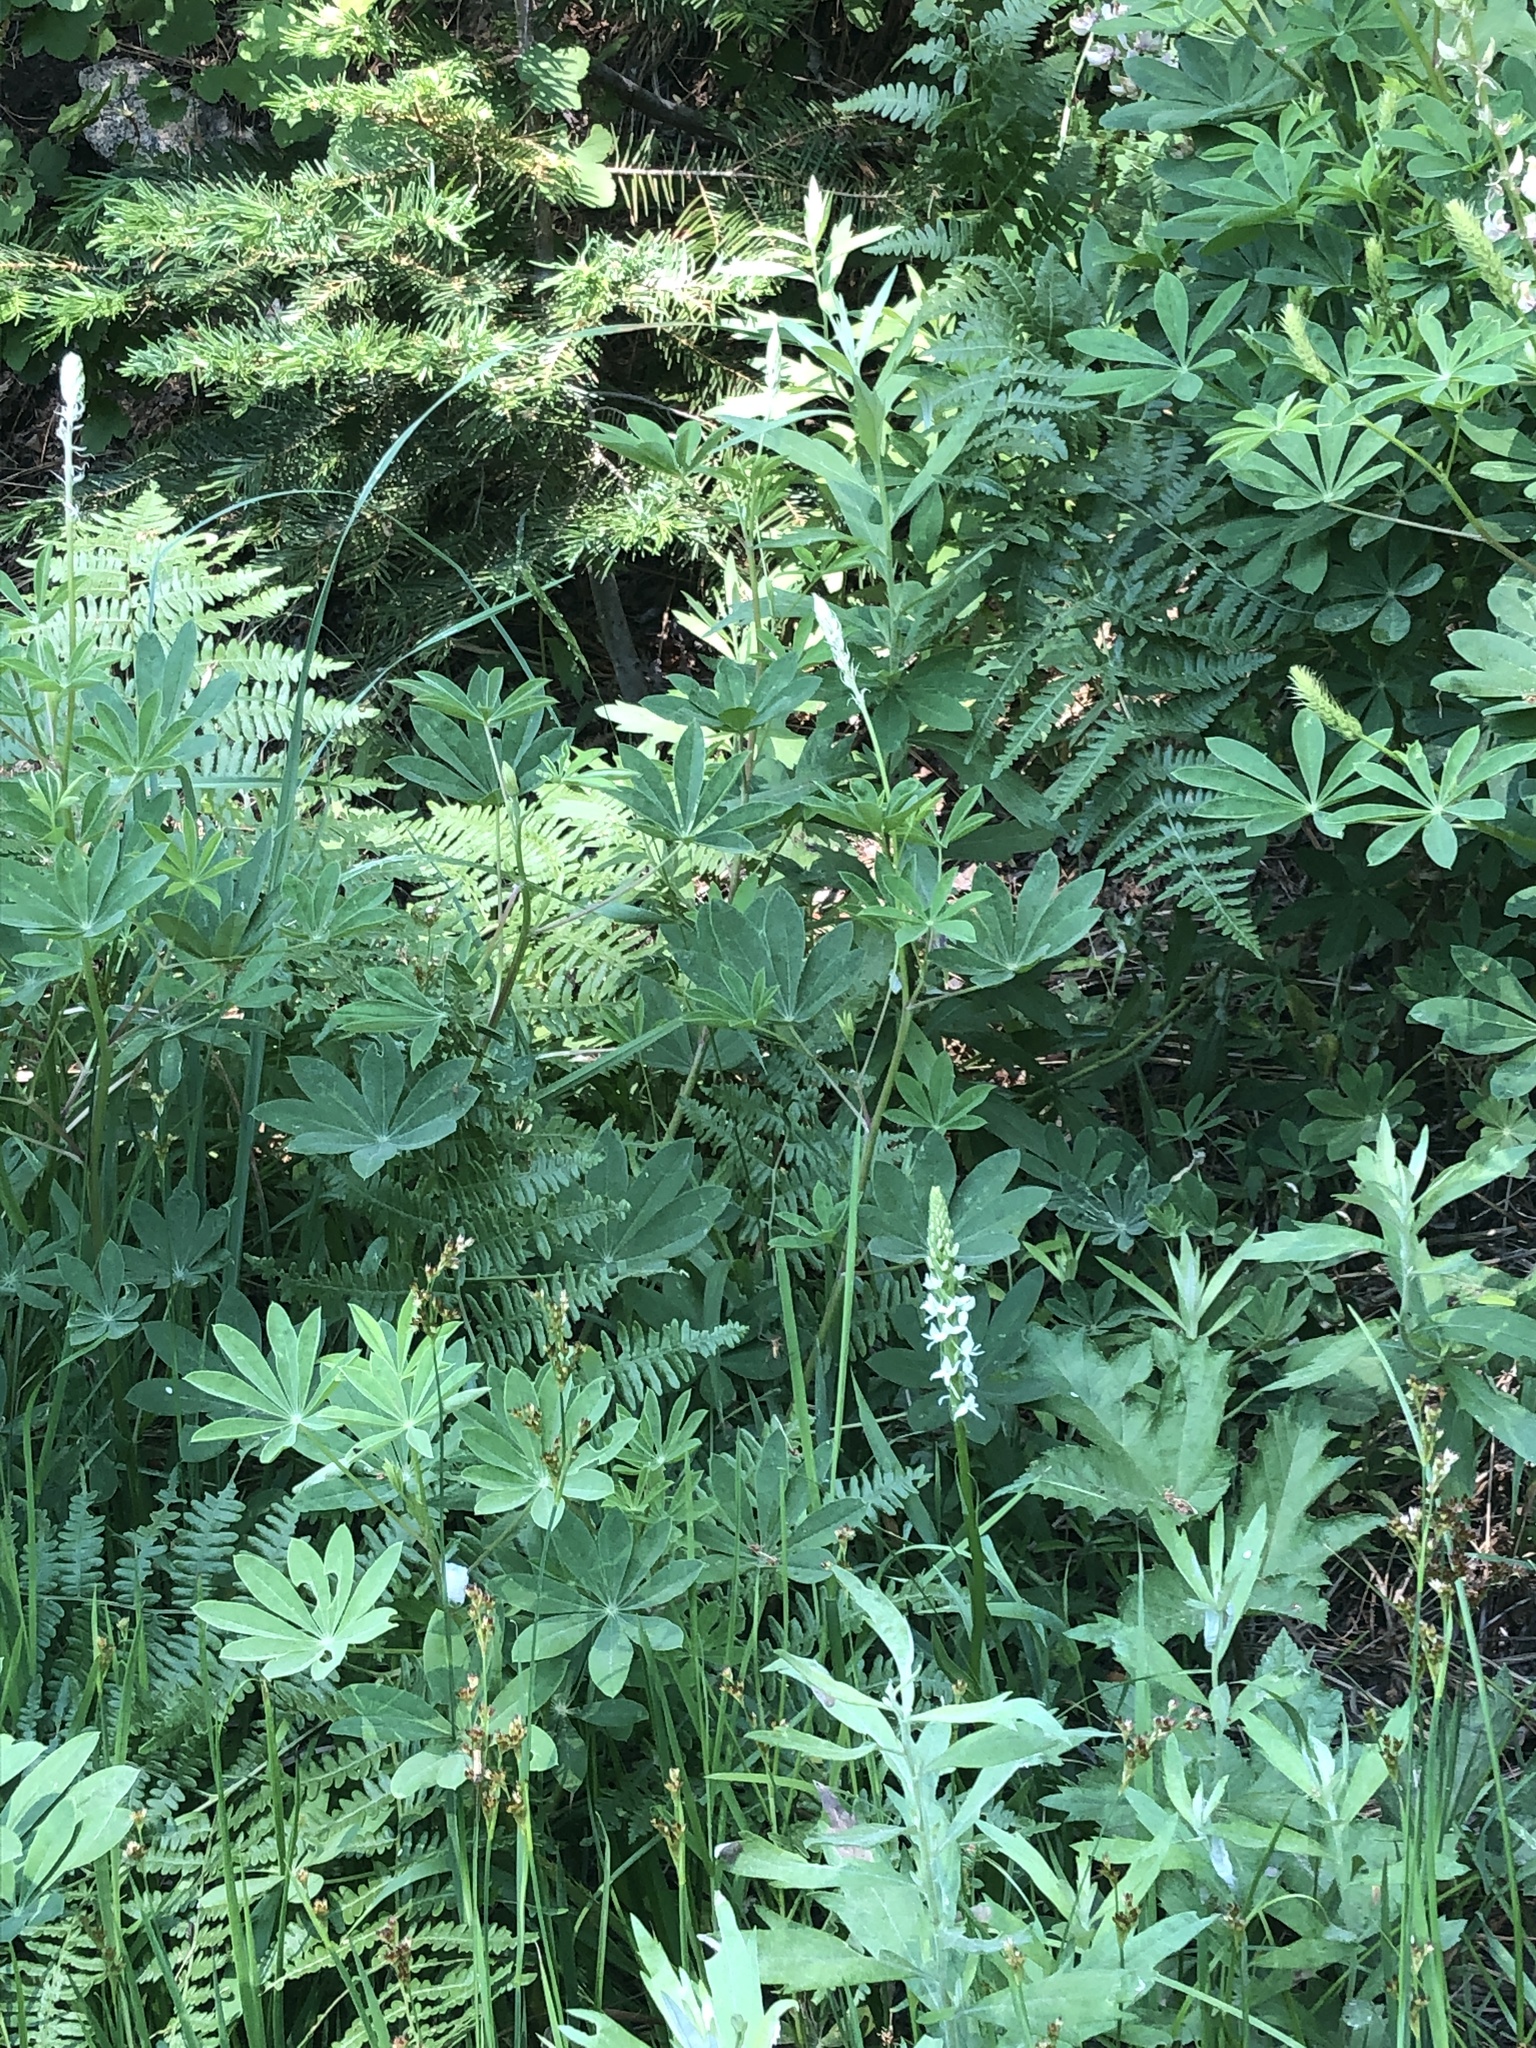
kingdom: Plantae
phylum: Tracheophyta
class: Liliopsida
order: Asparagales
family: Orchidaceae
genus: Platanthera
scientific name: Platanthera dilatata
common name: Bog candles
